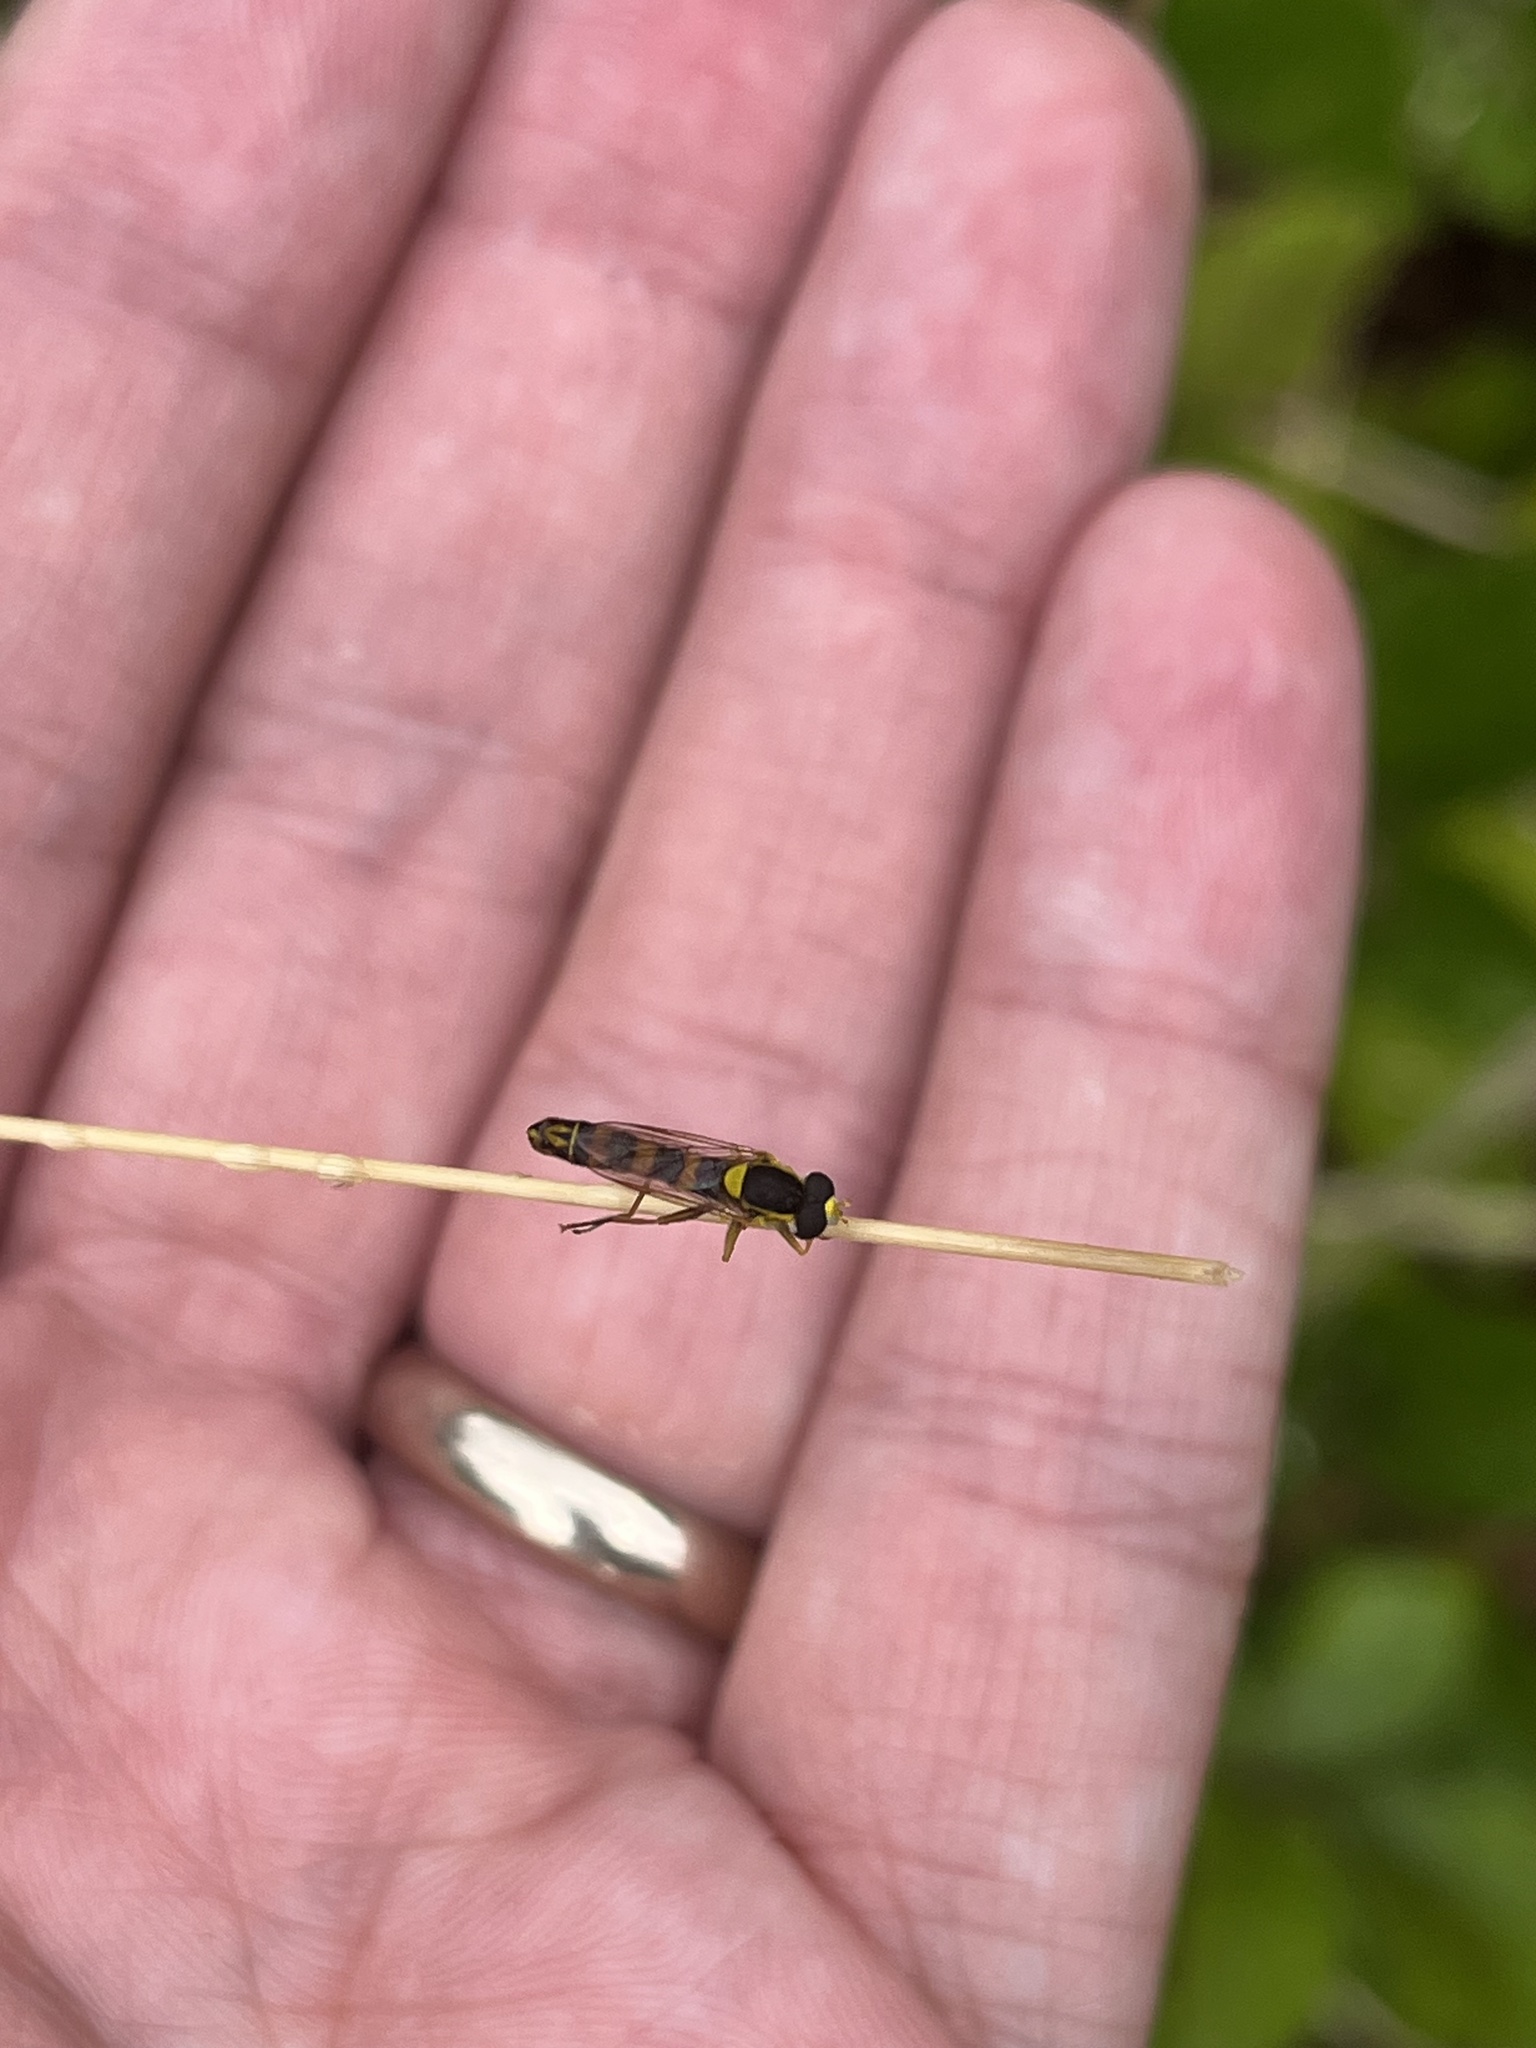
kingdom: Animalia
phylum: Arthropoda
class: Insecta
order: Diptera
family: Syrphidae
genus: Sphaerophoria
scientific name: Sphaerophoria scripta
